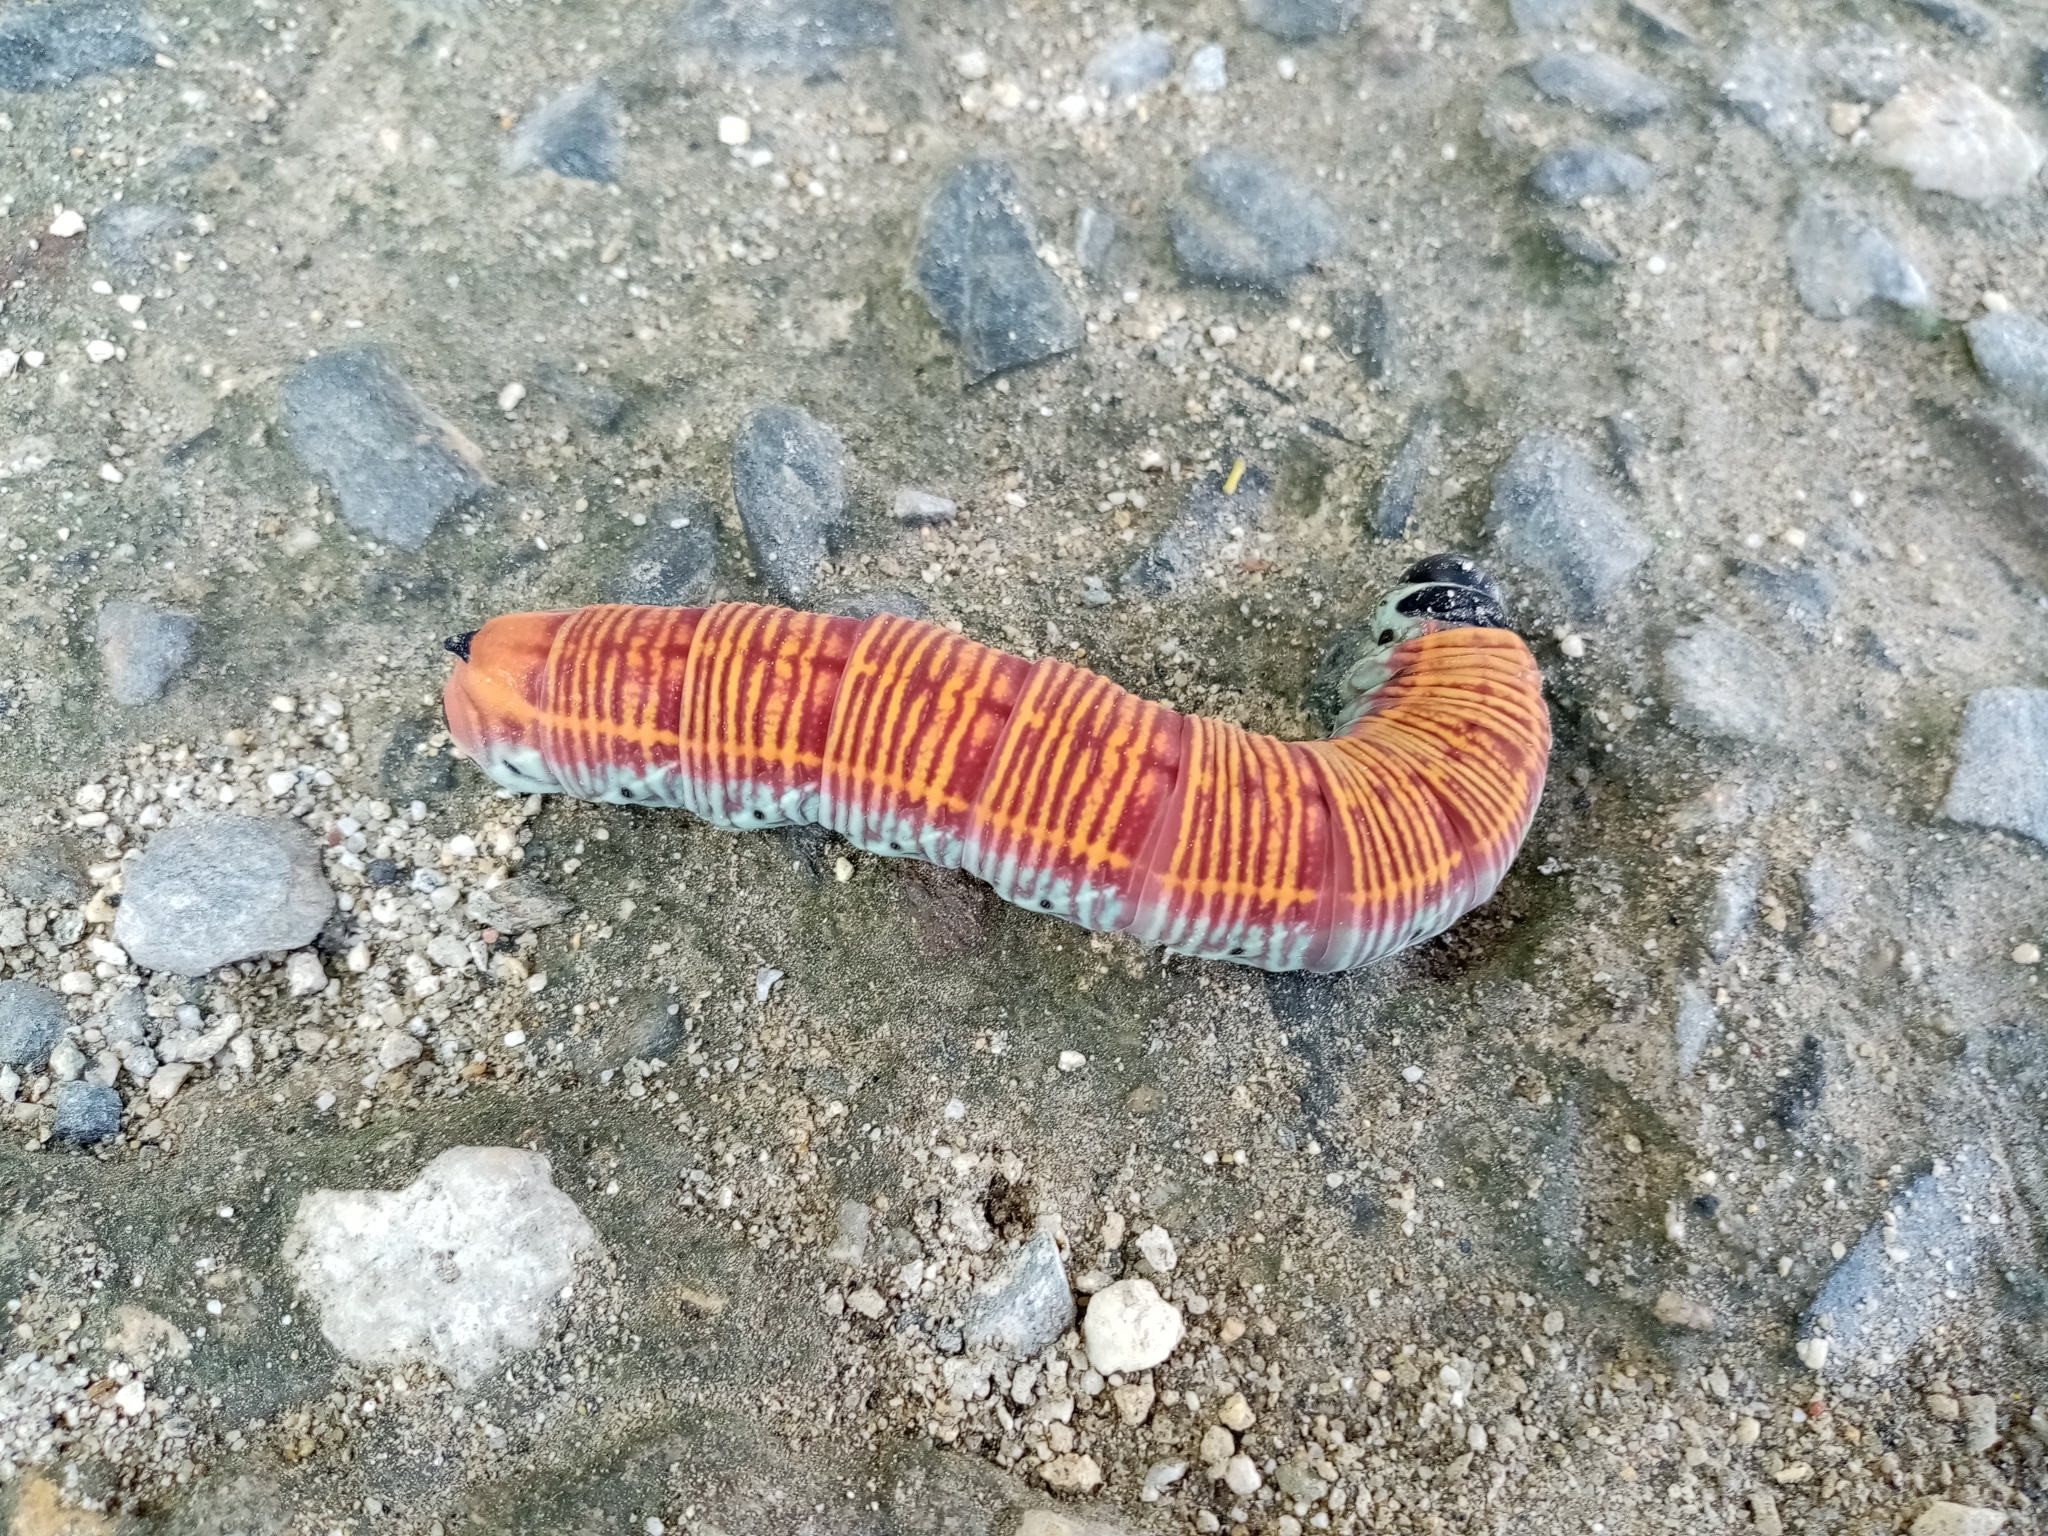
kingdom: Animalia
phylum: Arthropoda
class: Insecta
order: Lepidoptera
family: Sphingidae
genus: Pachylia
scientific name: Pachylia ficus
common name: Fig sphinx
